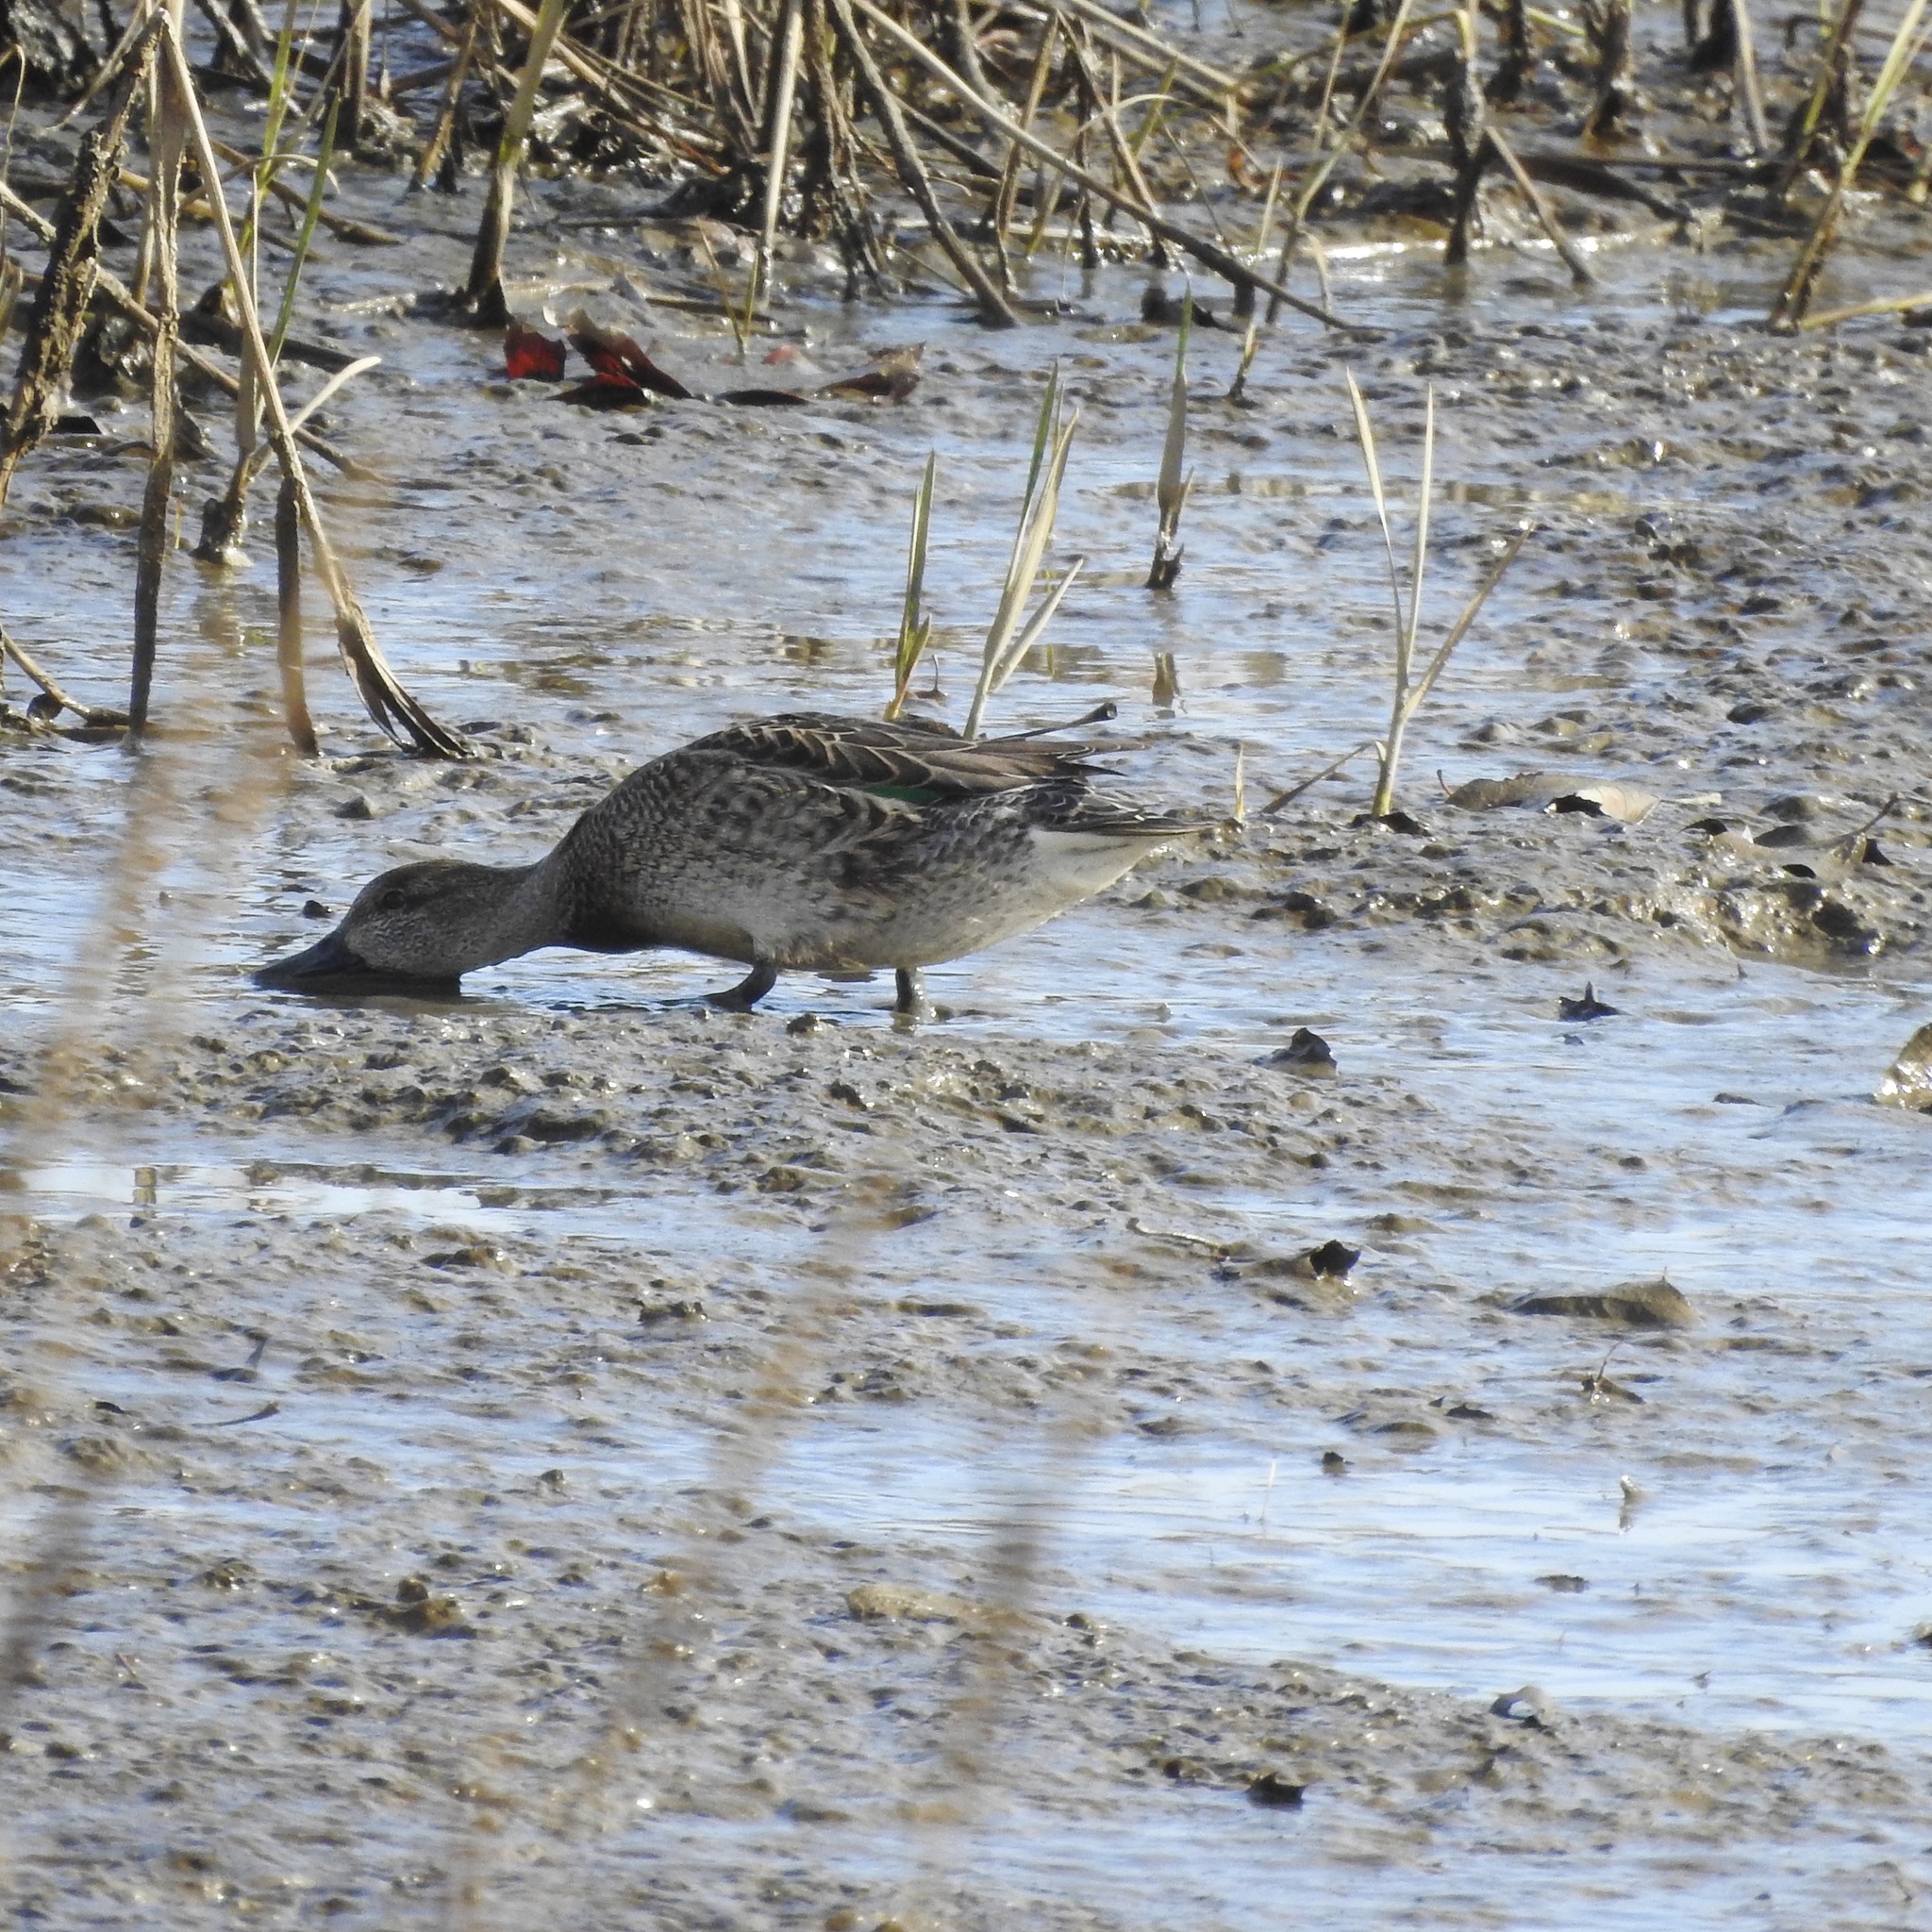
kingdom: Animalia
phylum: Chordata
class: Aves
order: Anseriformes
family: Anatidae
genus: Anas
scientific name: Anas crecca
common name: Eurasian teal
